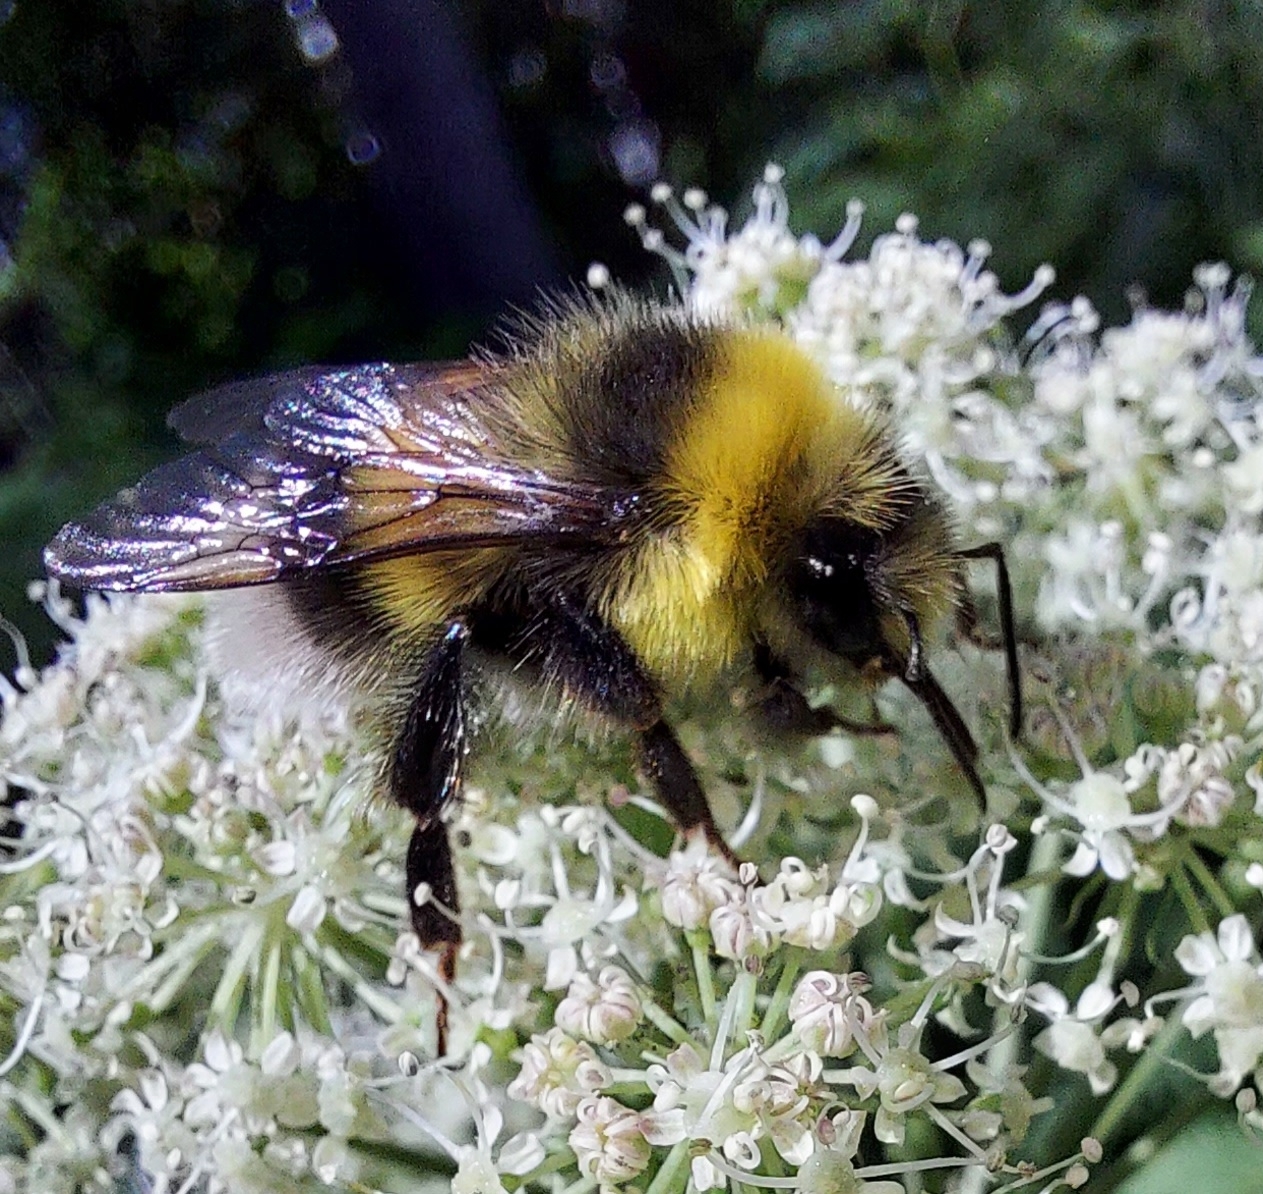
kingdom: Animalia
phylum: Arthropoda
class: Insecta
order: Hymenoptera
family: Apidae
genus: Bombus
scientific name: Bombus
